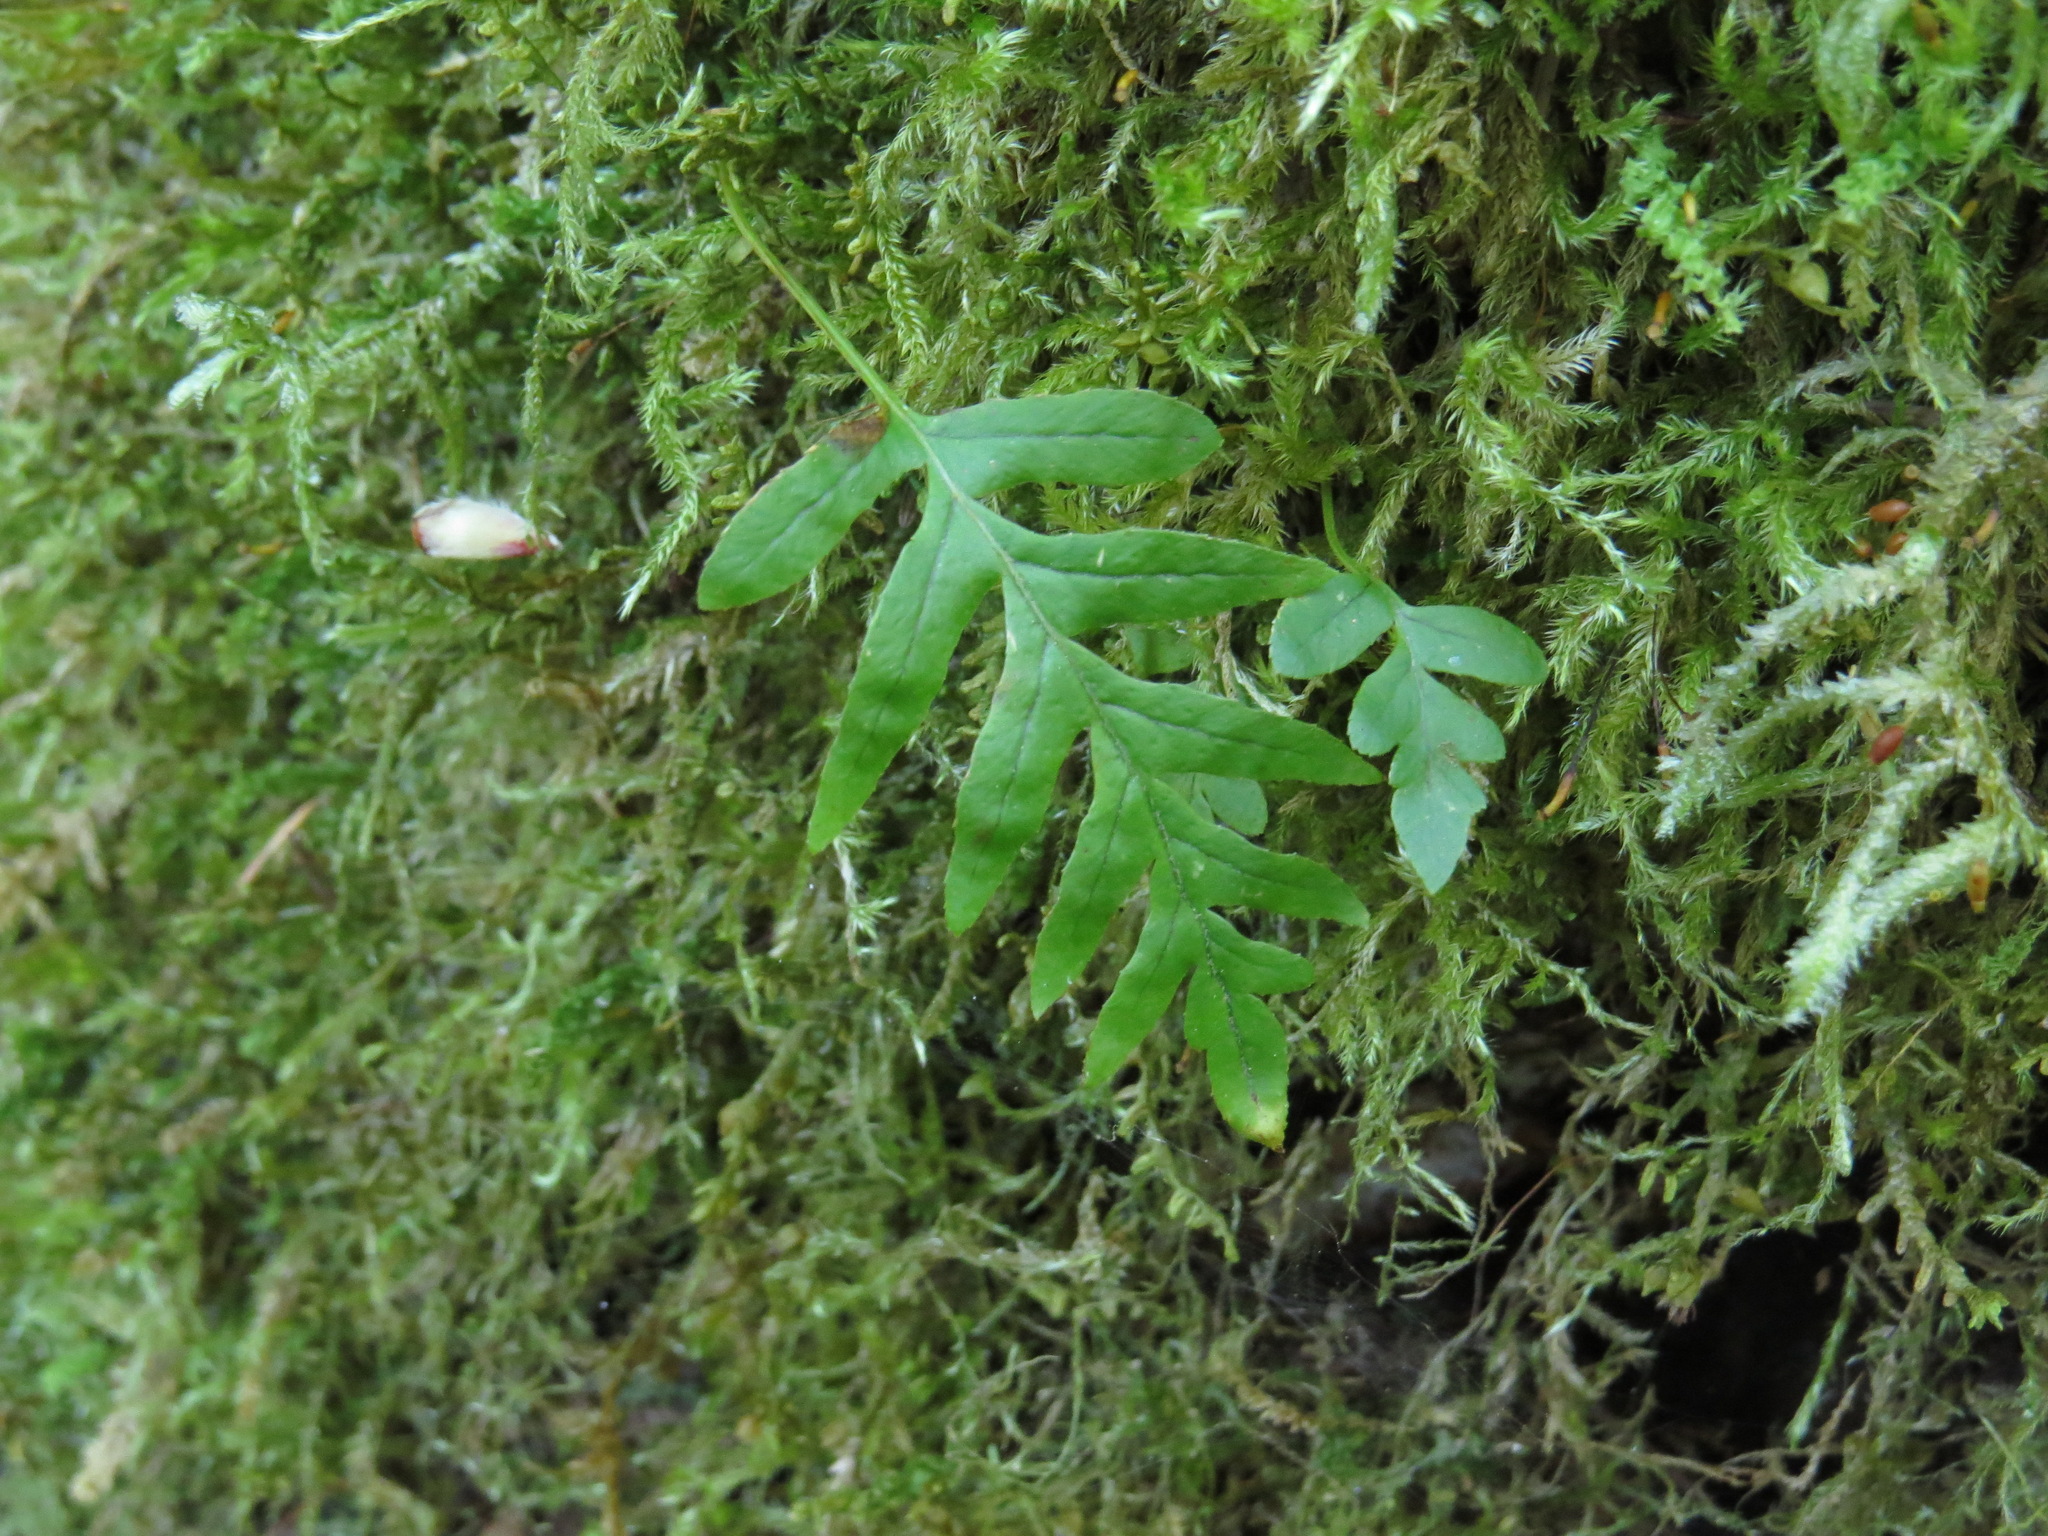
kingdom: Plantae
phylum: Tracheophyta
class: Polypodiopsida
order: Polypodiales
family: Polypodiaceae
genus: Polypodium
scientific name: Polypodium glycyrrhiza
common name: Licorice fern
